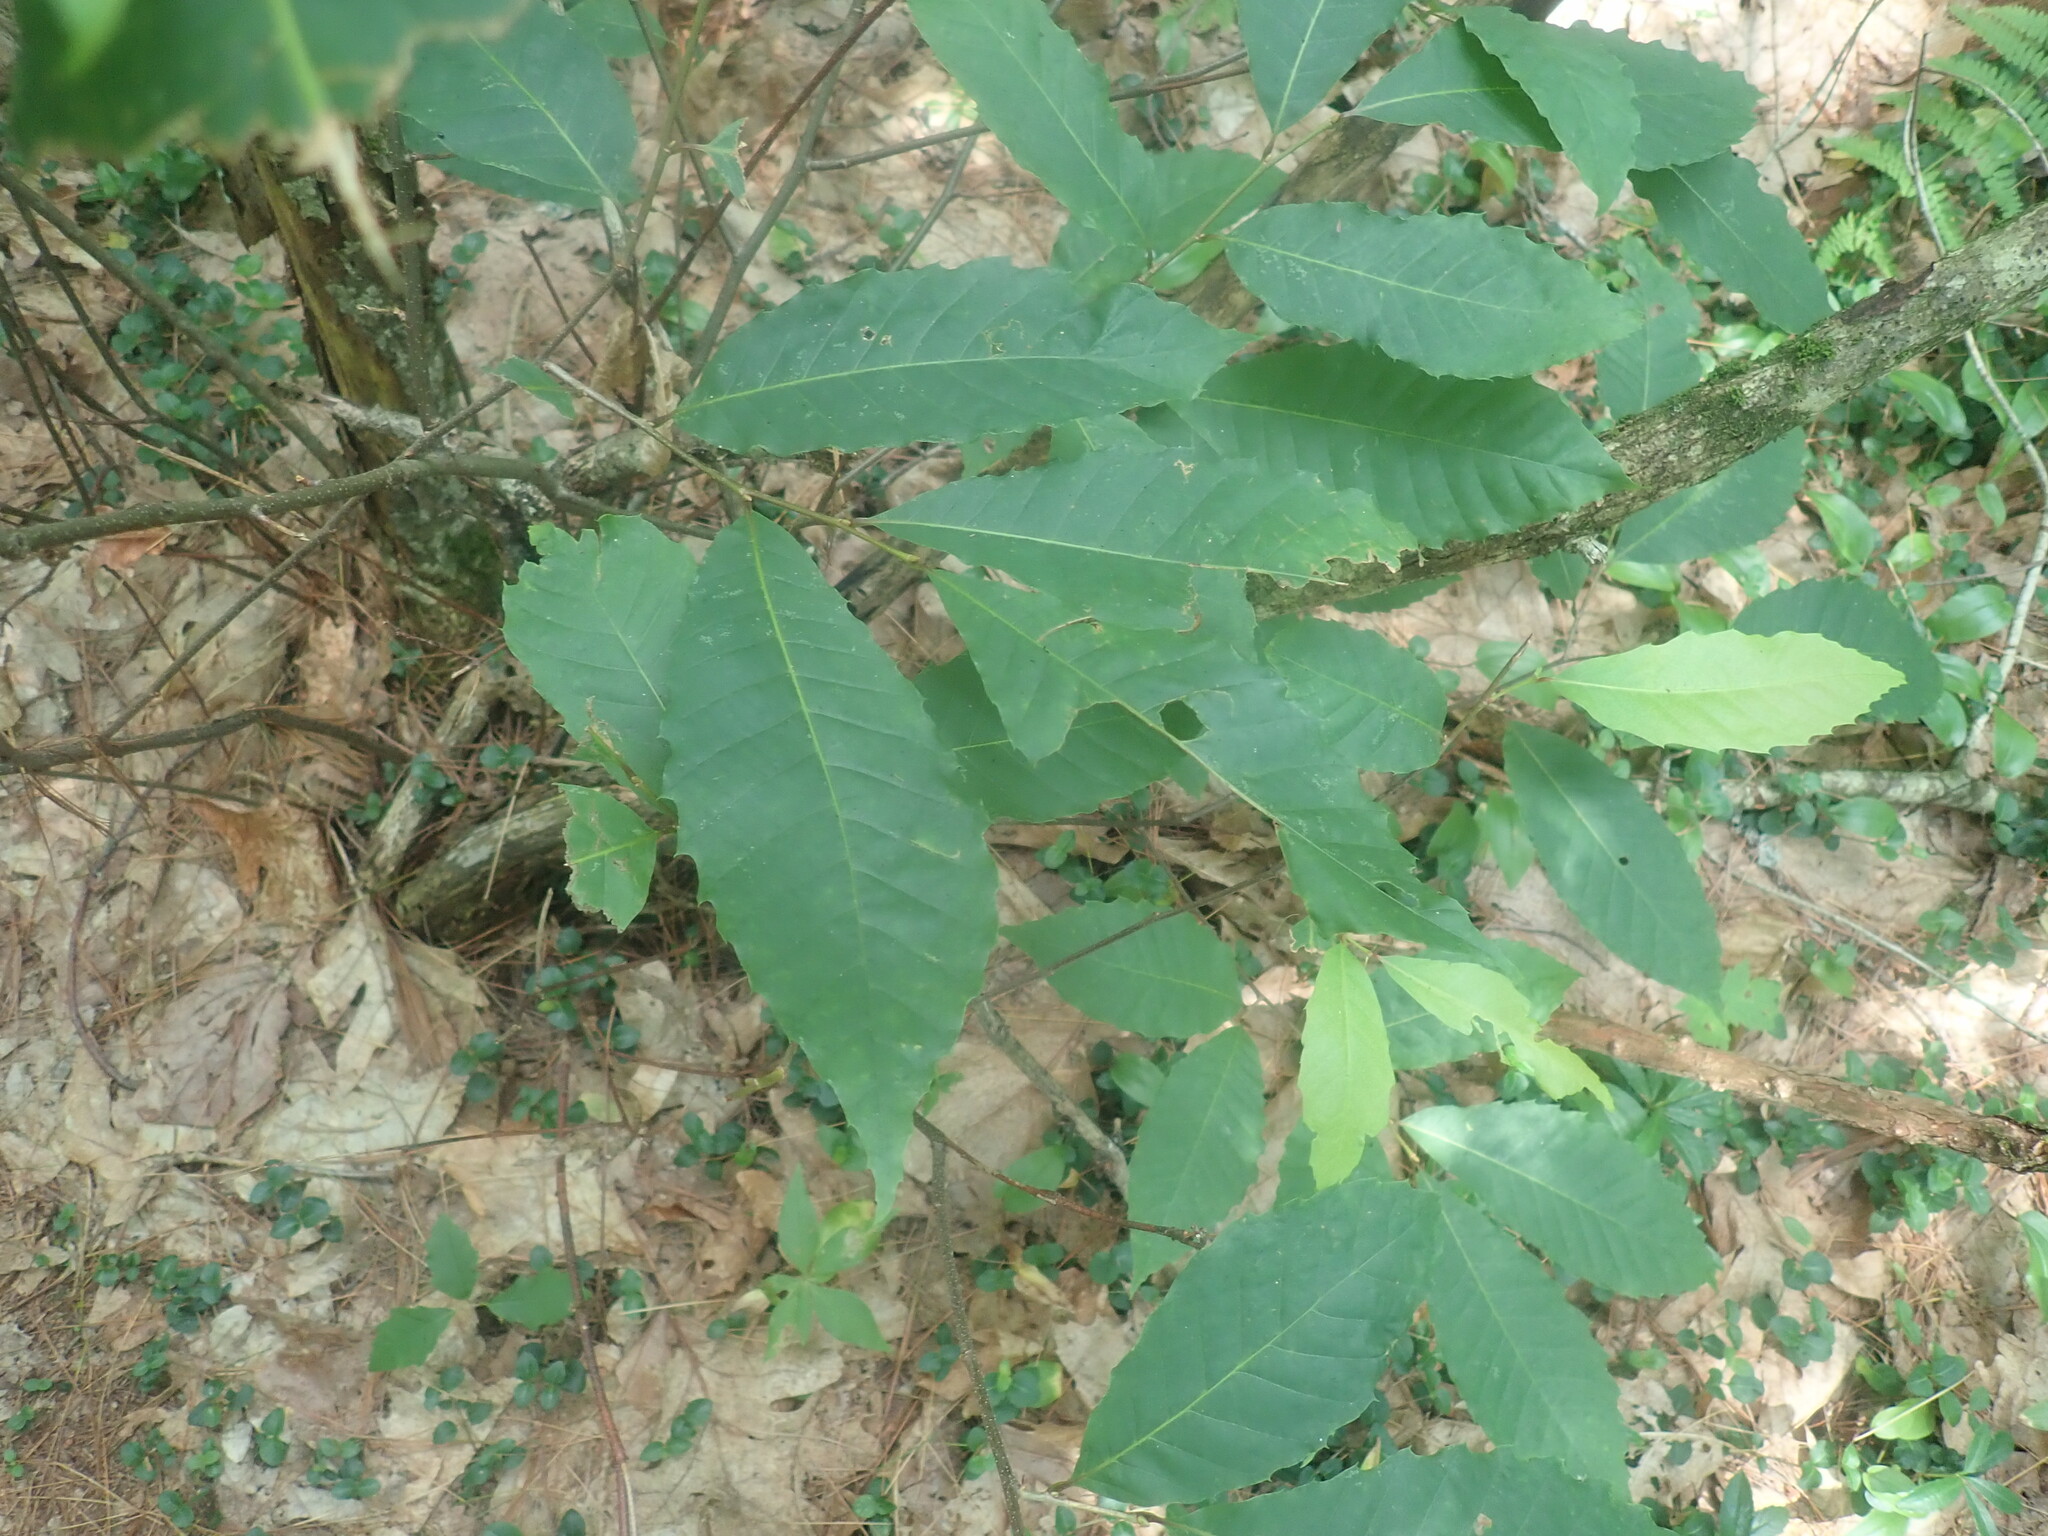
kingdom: Plantae
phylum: Tracheophyta
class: Magnoliopsida
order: Fagales
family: Fagaceae
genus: Castanea
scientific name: Castanea dentata
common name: American chestnut
